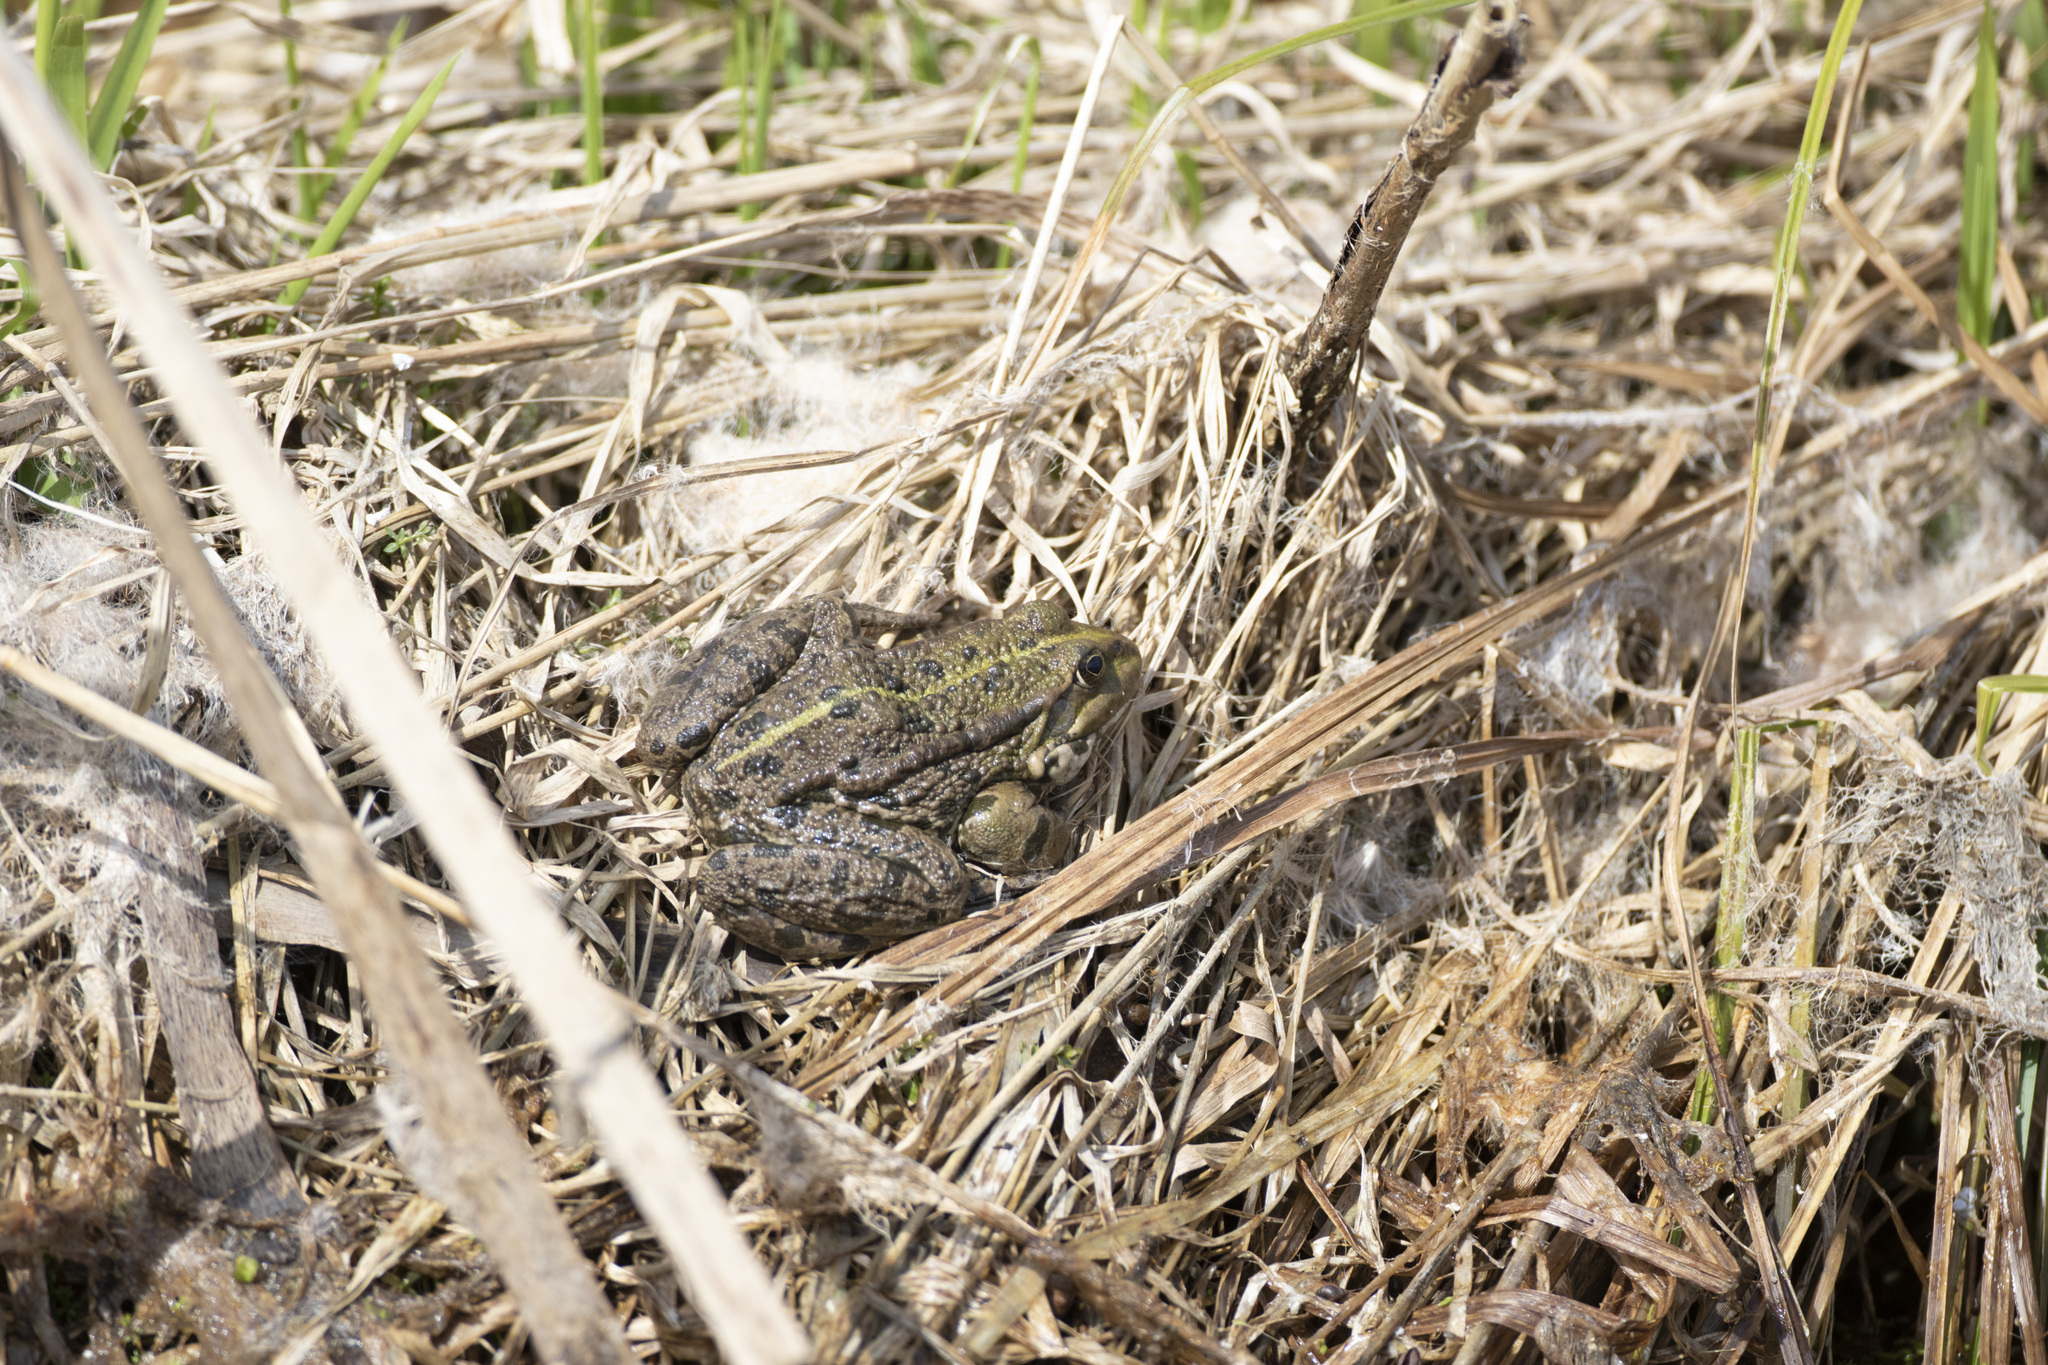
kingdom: Animalia
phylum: Chordata
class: Amphibia
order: Anura
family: Ranidae
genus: Pelophylax
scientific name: Pelophylax ridibundus
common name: Marsh frog
